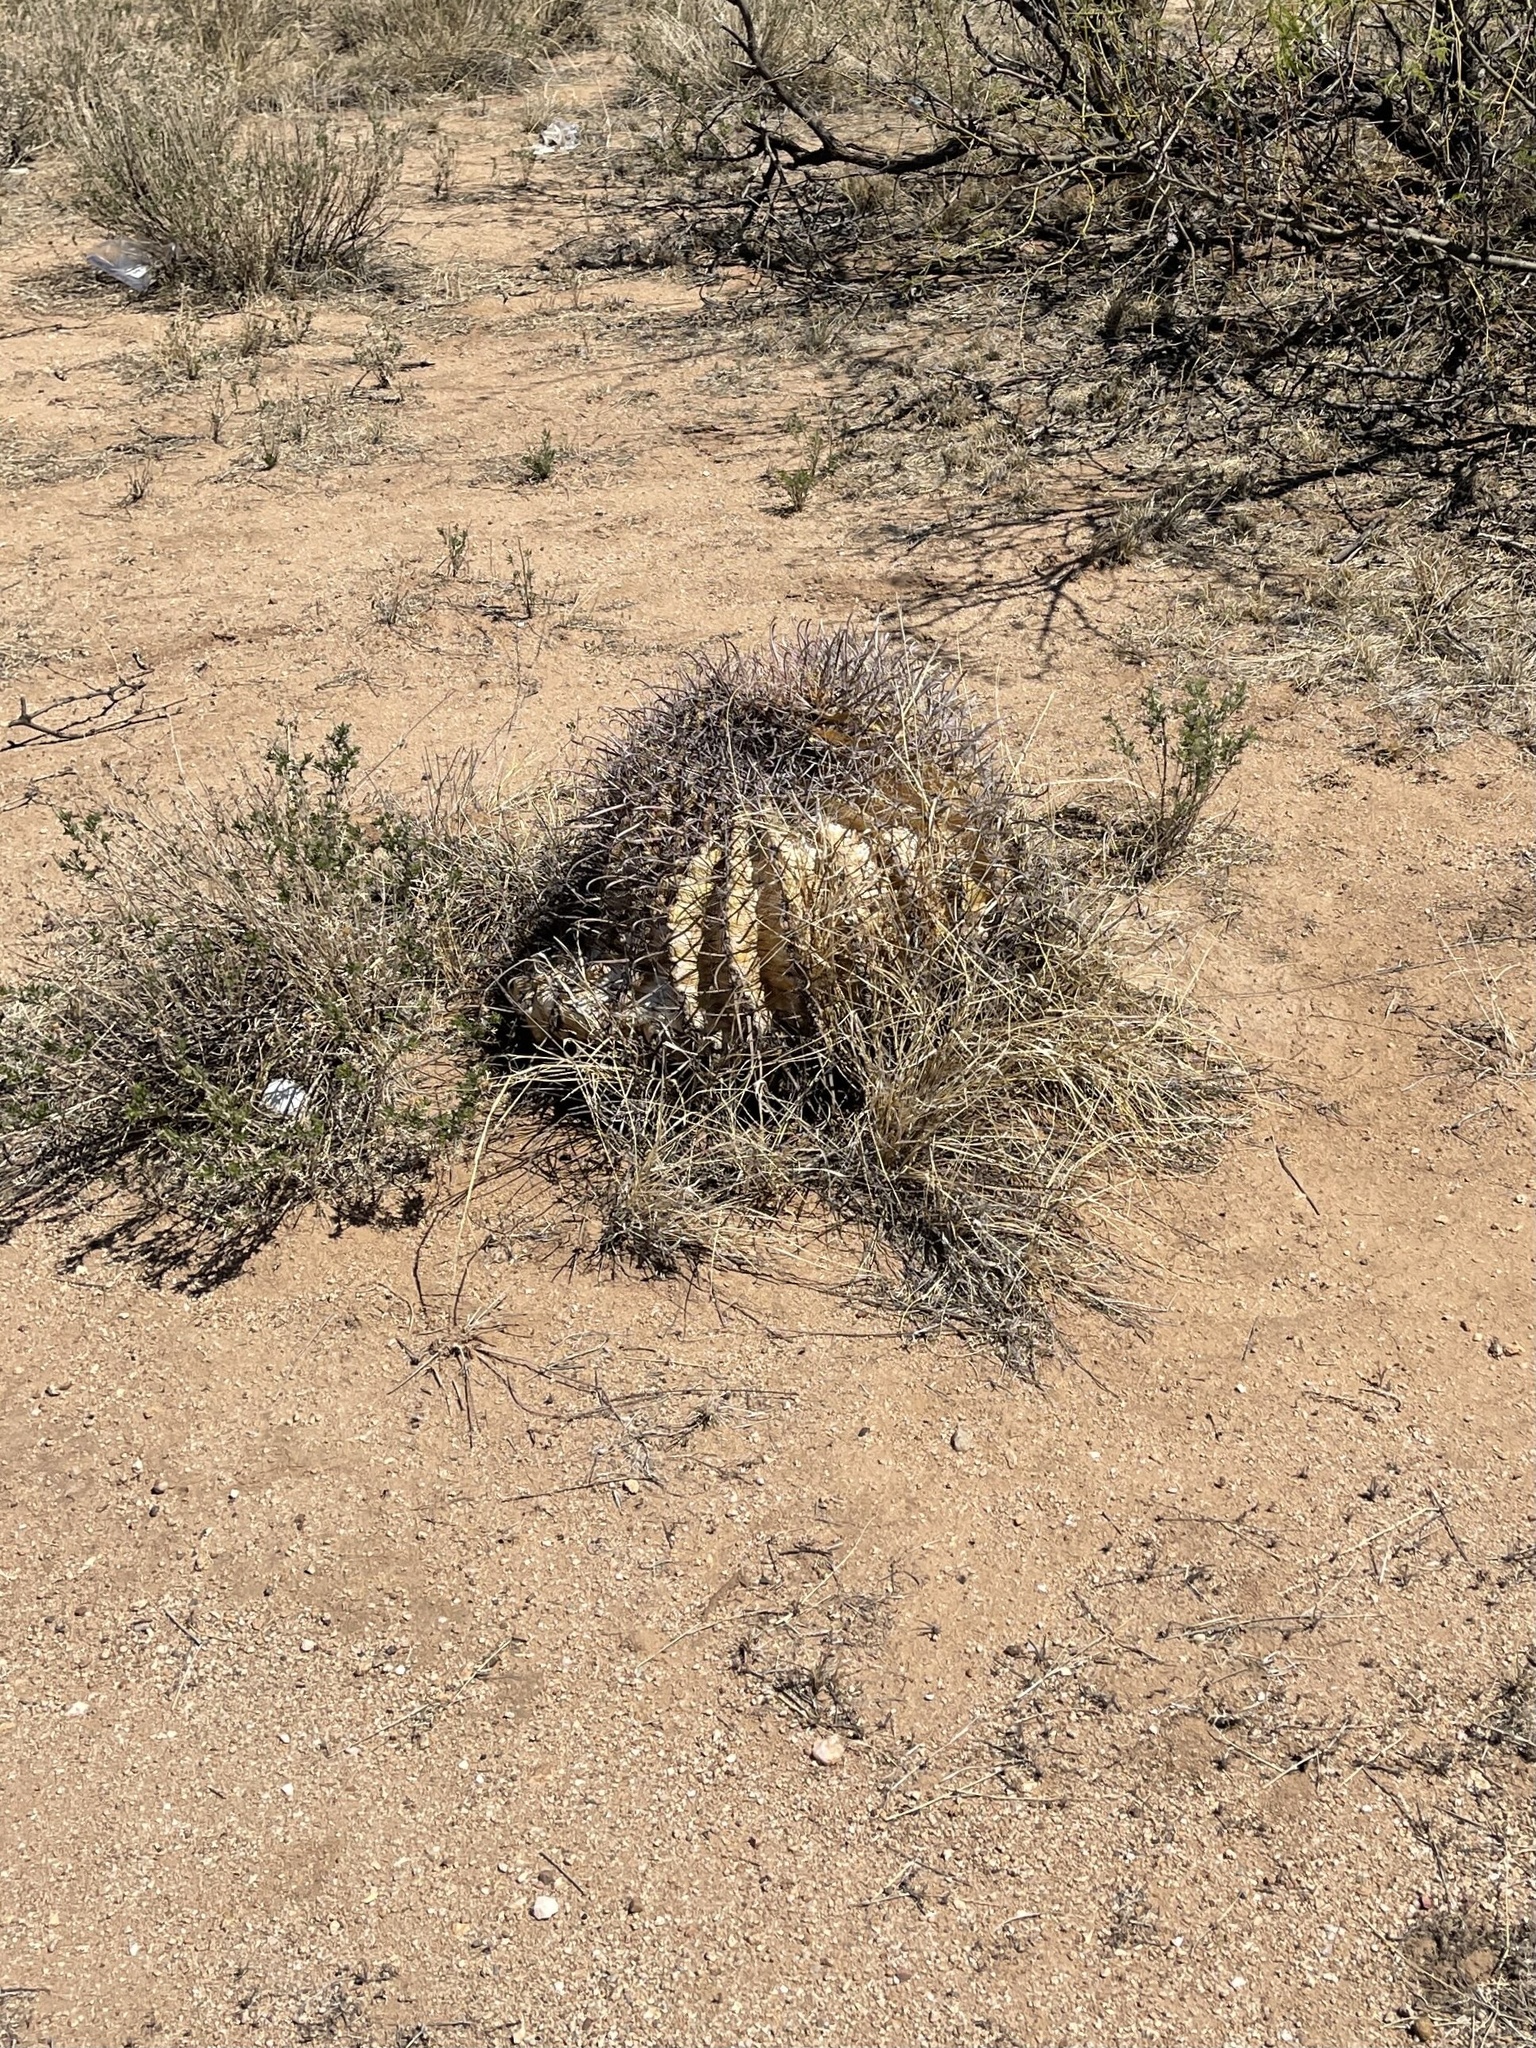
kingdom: Plantae
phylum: Tracheophyta
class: Magnoliopsida
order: Caryophyllales
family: Cactaceae
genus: Ferocactus
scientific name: Ferocactus wislizeni
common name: Candy barrel cactus
